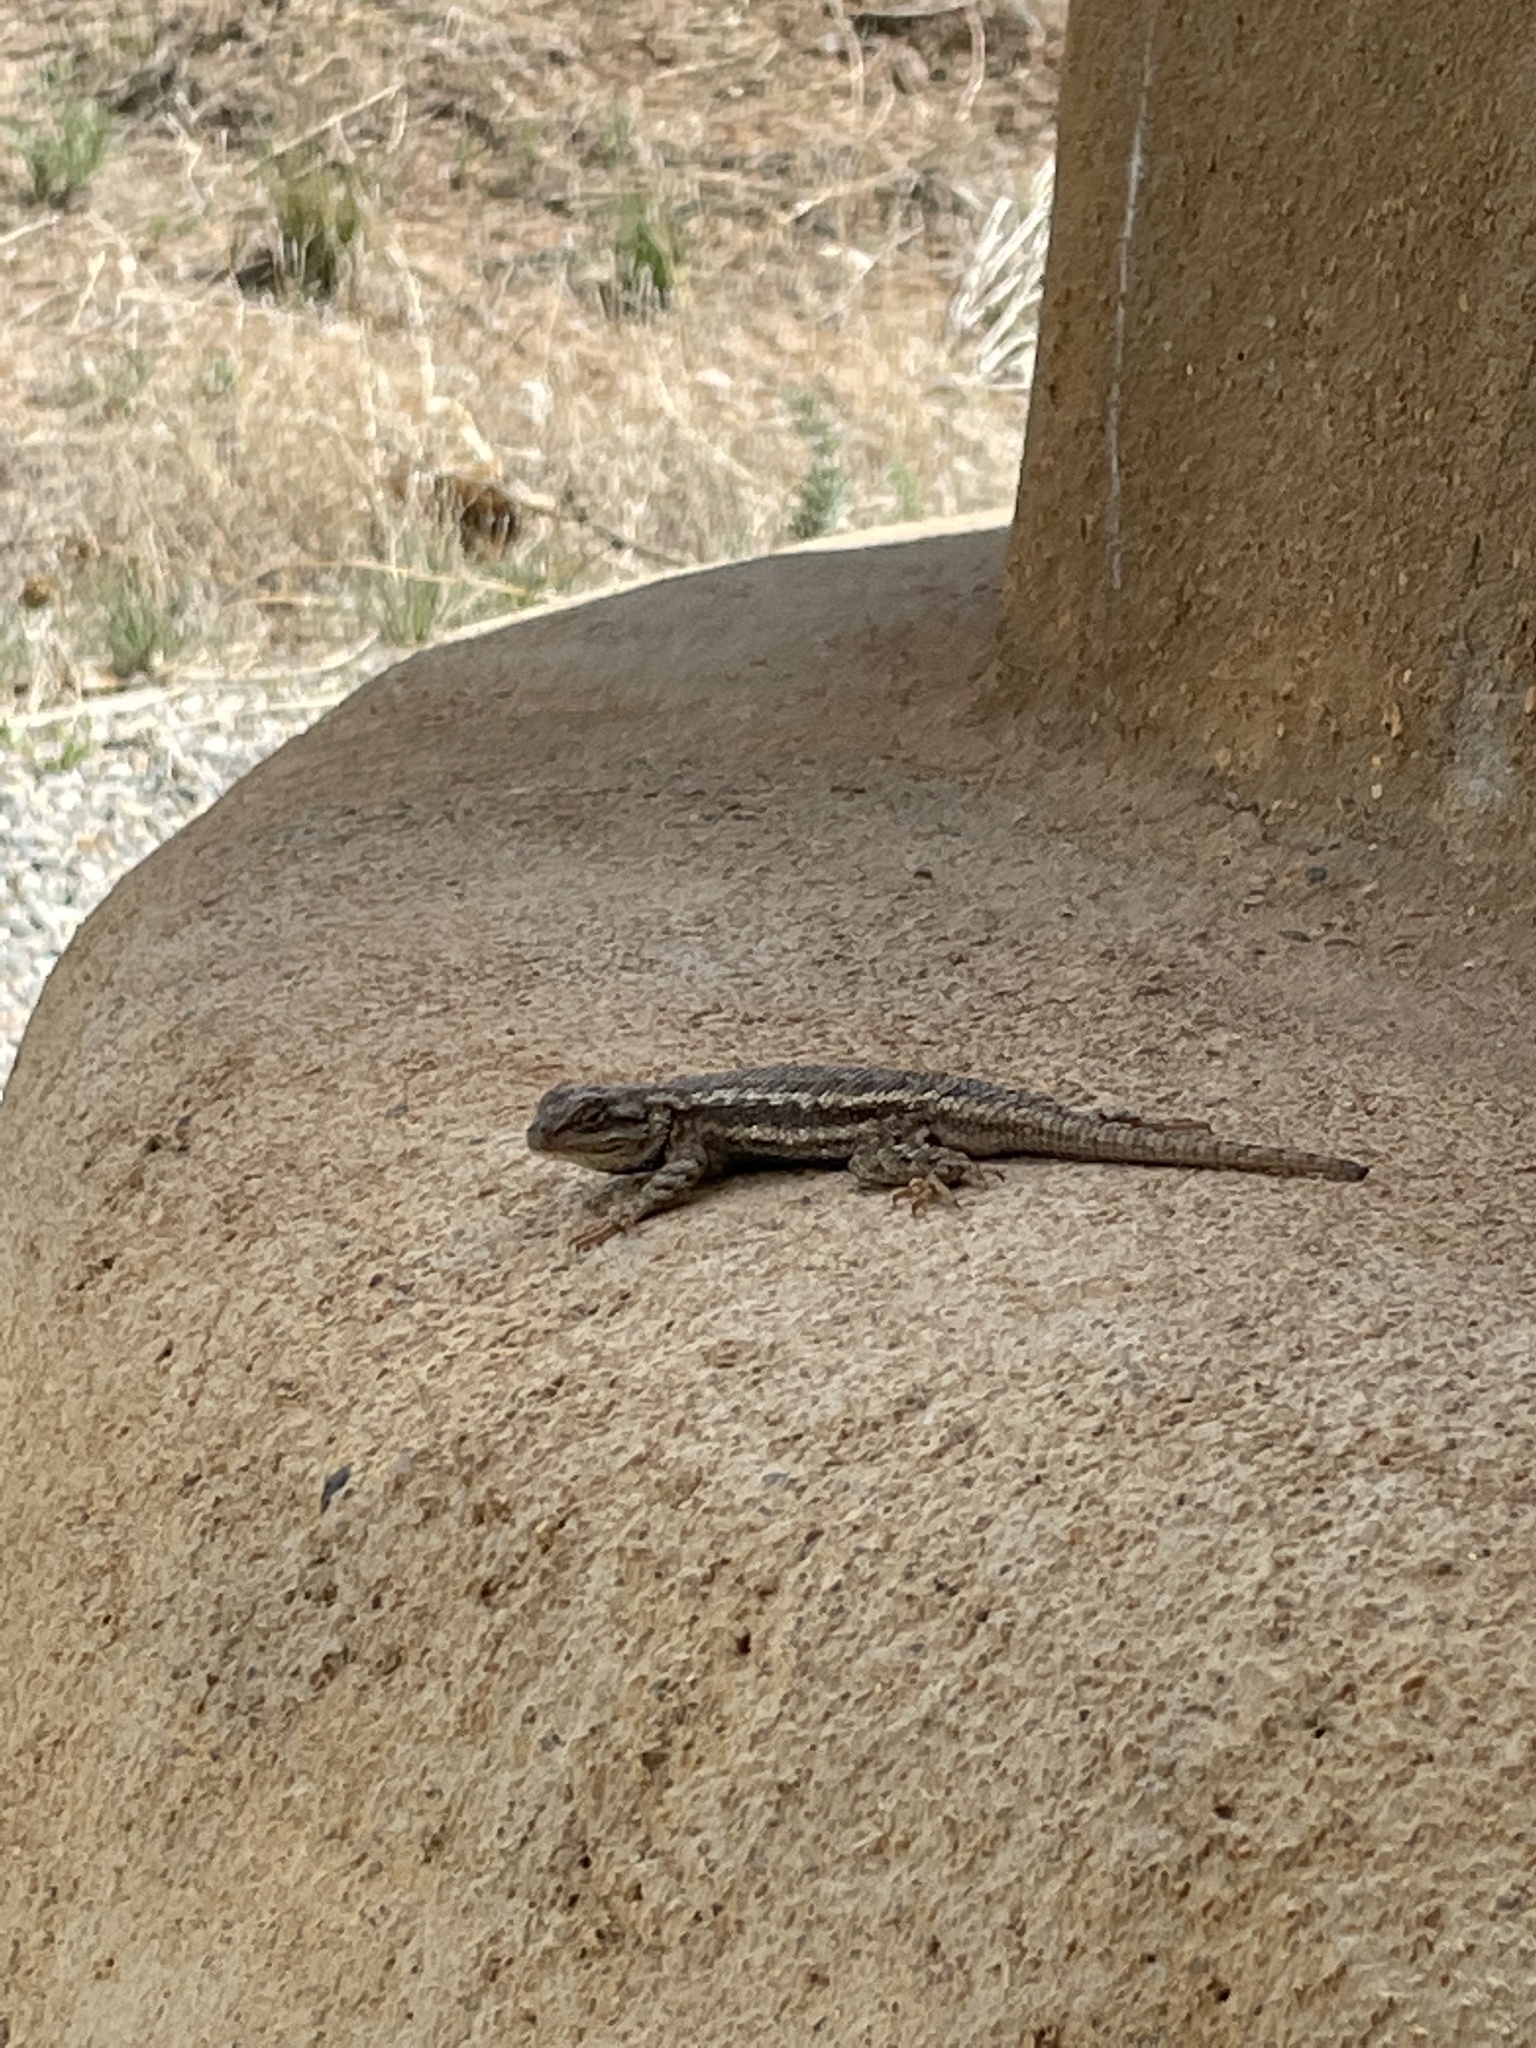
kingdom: Animalia
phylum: Chordata
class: Squamata
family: Phrynosomatidae
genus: Sceloporus
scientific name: Sceloporus
